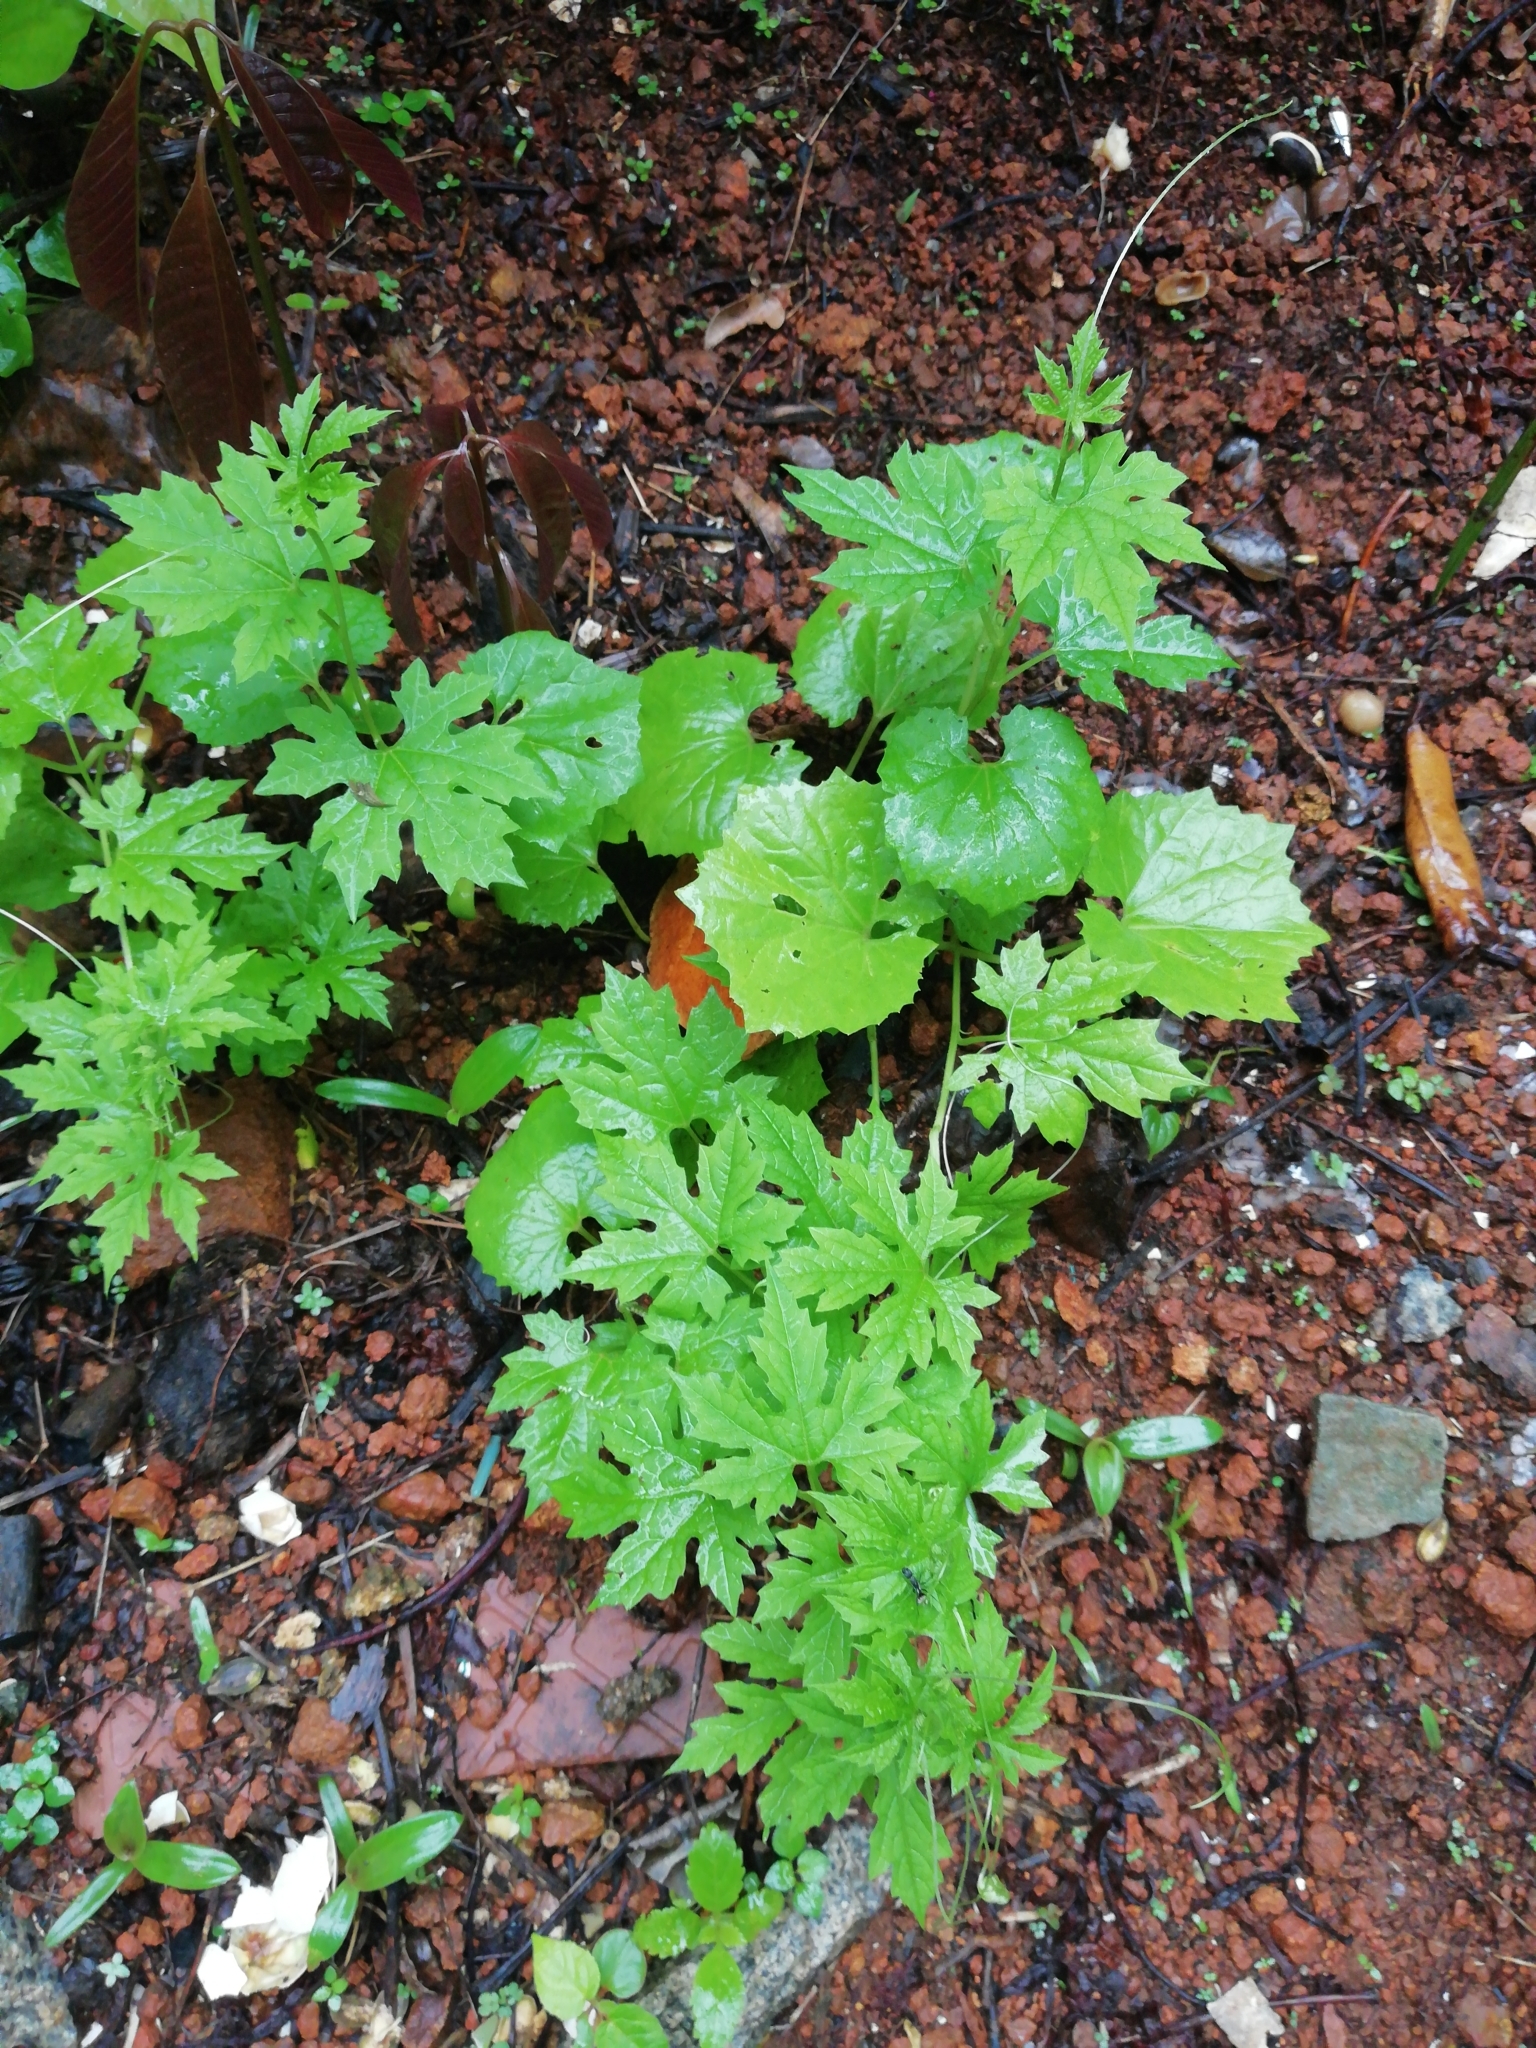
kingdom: Plantae
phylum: Tracheophyta
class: Magnoliopsida
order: Cucurbitales
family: Cucurbitaceae
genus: Momordica
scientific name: Momordica charantia
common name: Balsampear
